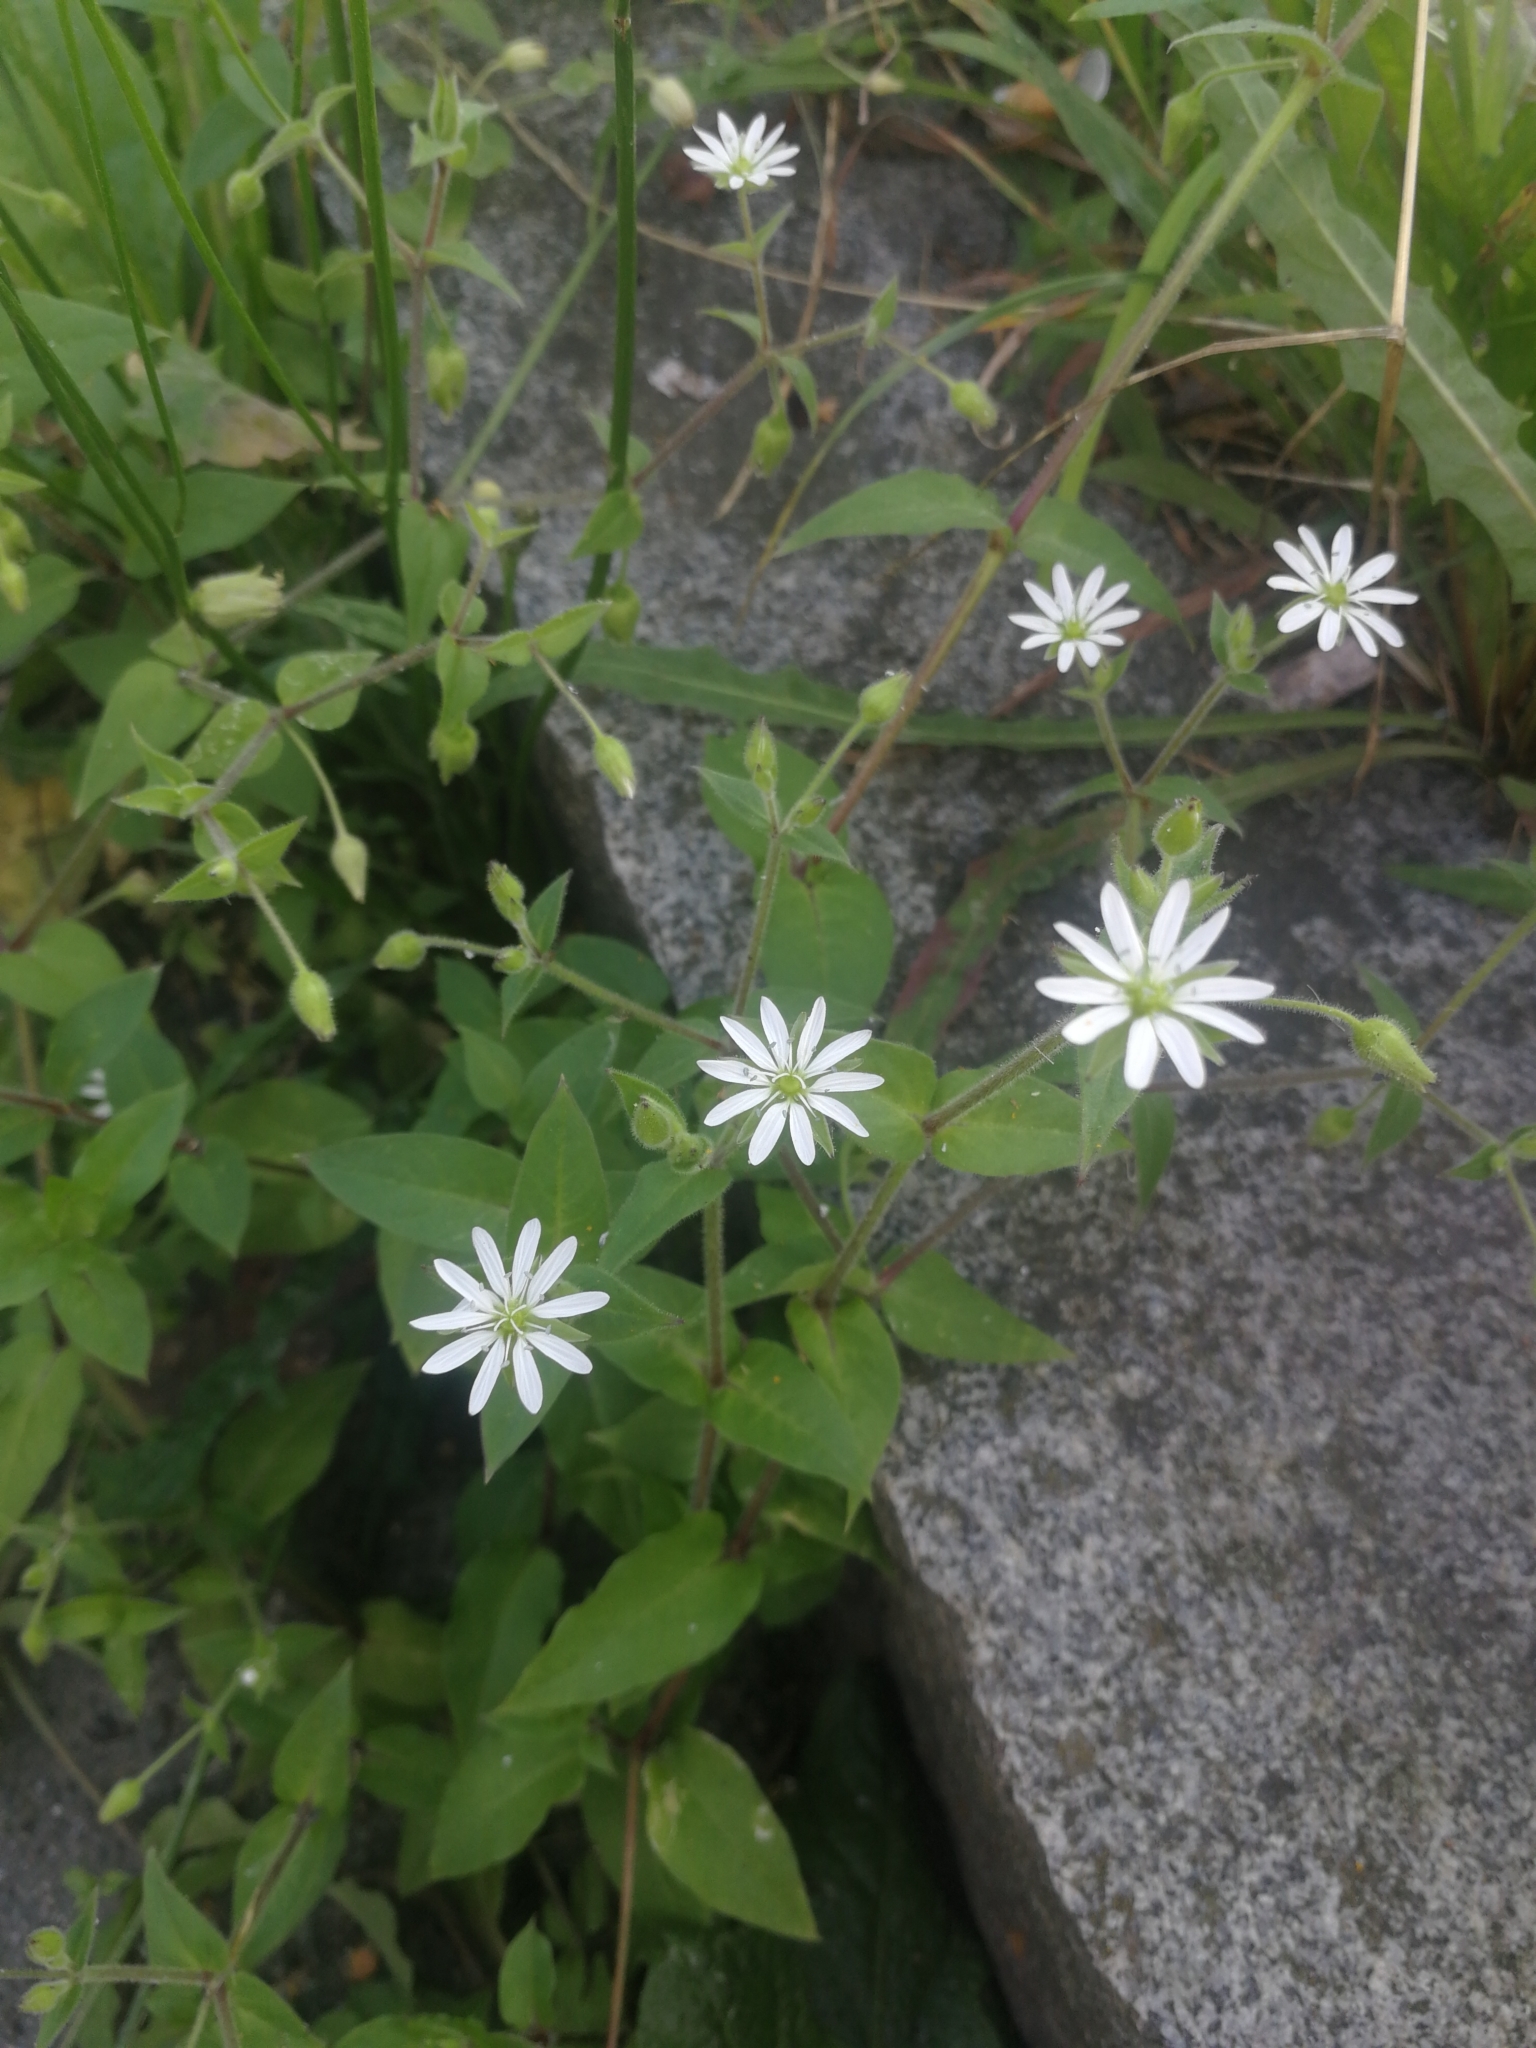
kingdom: Plantae
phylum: Tracheophyta
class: Magnoliopsida
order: Caryophyllales
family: Caryophyllaceae
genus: Stellaria
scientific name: Stellaria aquatica
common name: Water chickweed
